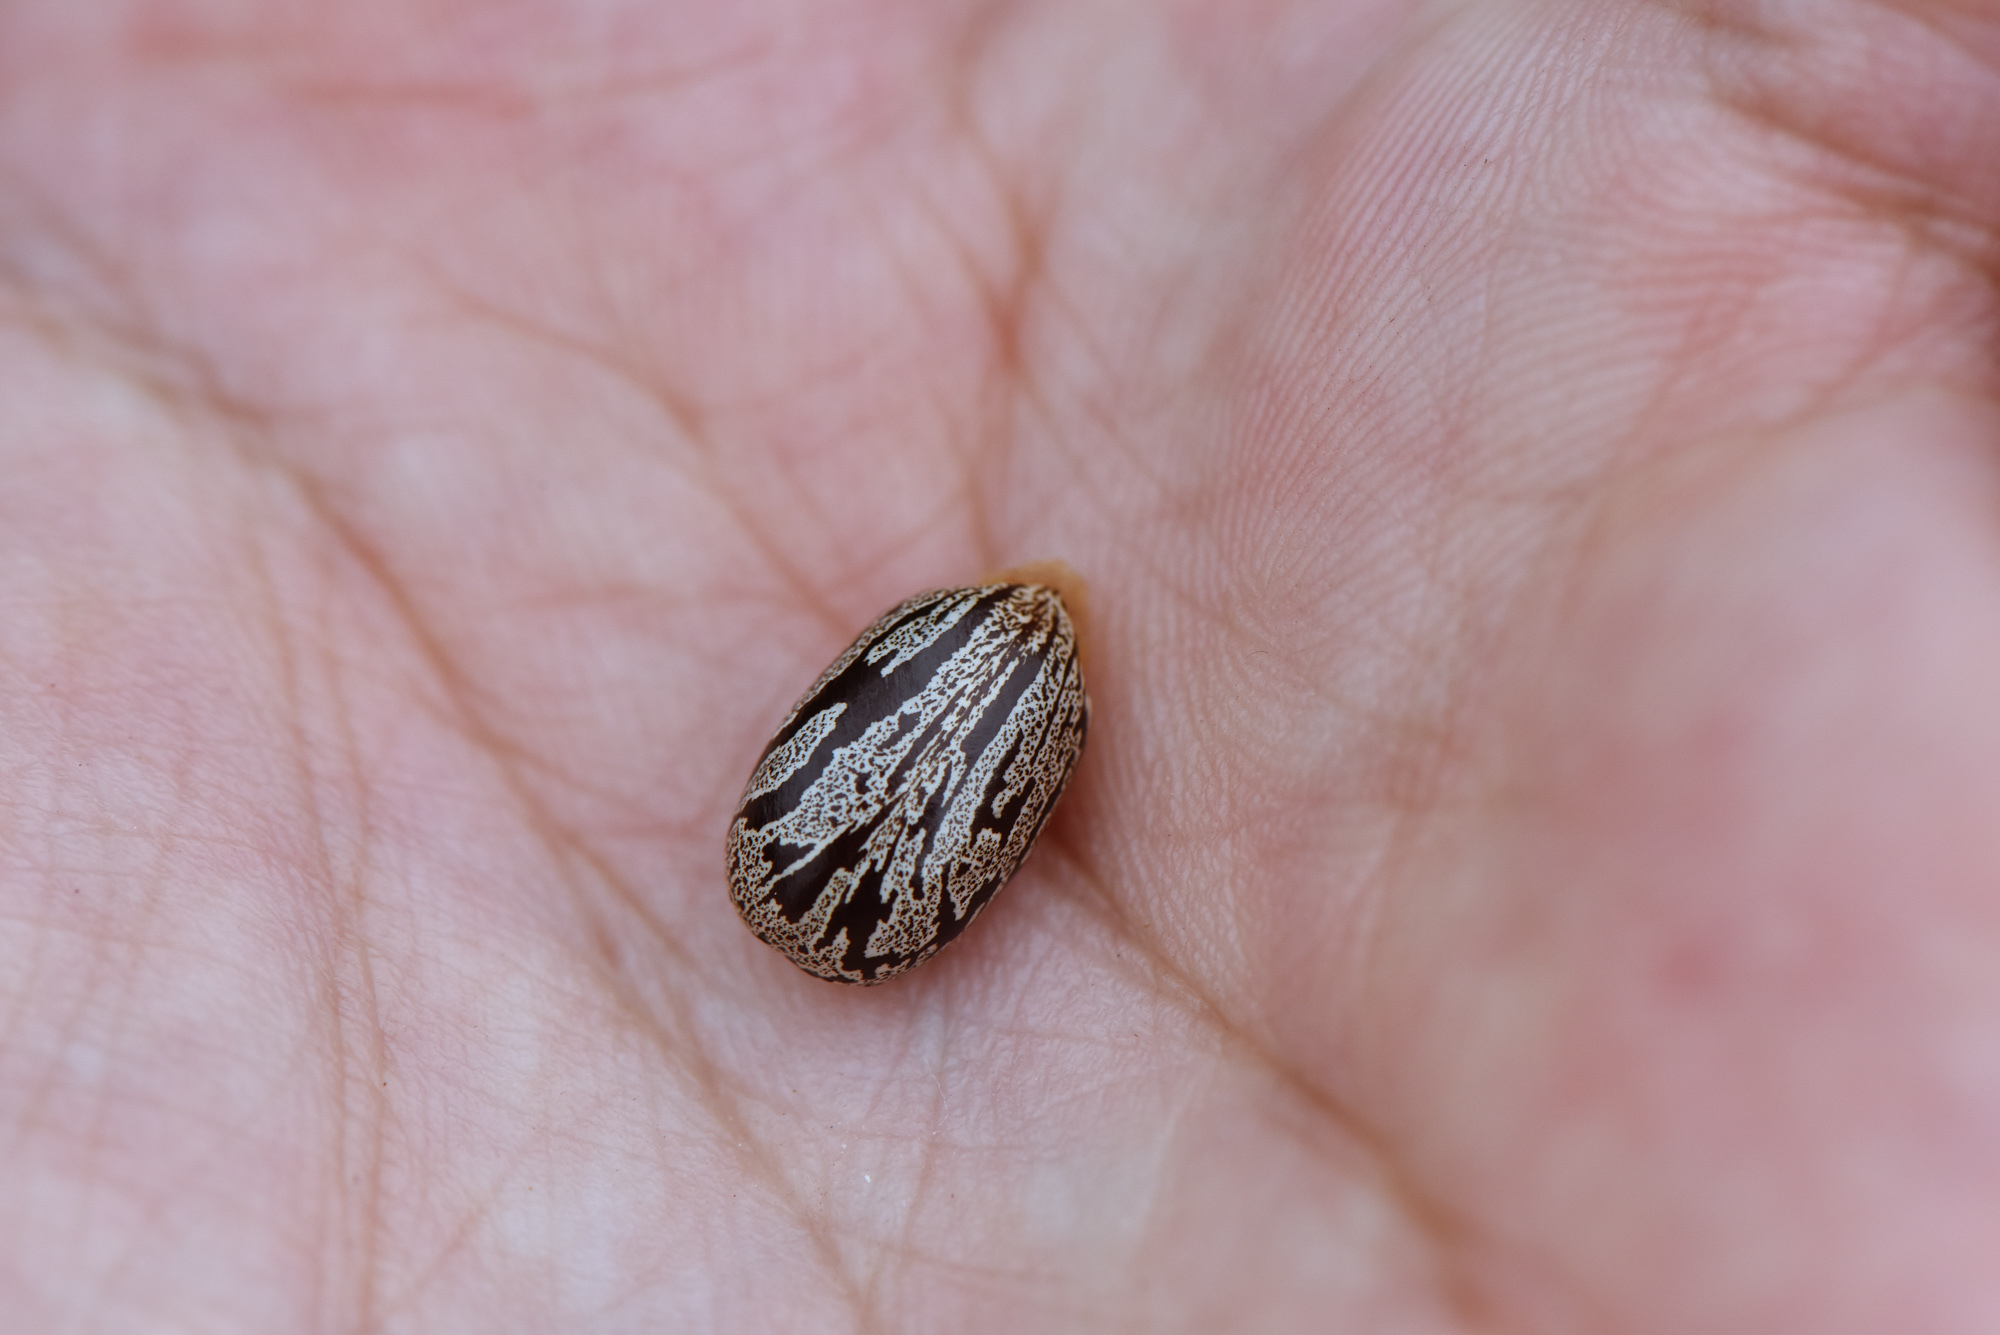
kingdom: Plantae
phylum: Tracheophyta
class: Magnoliopsida
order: Malpighiales
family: Euphorbiaceae
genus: Ricinus
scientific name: Ricinus communis
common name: Castor-oil-plant
